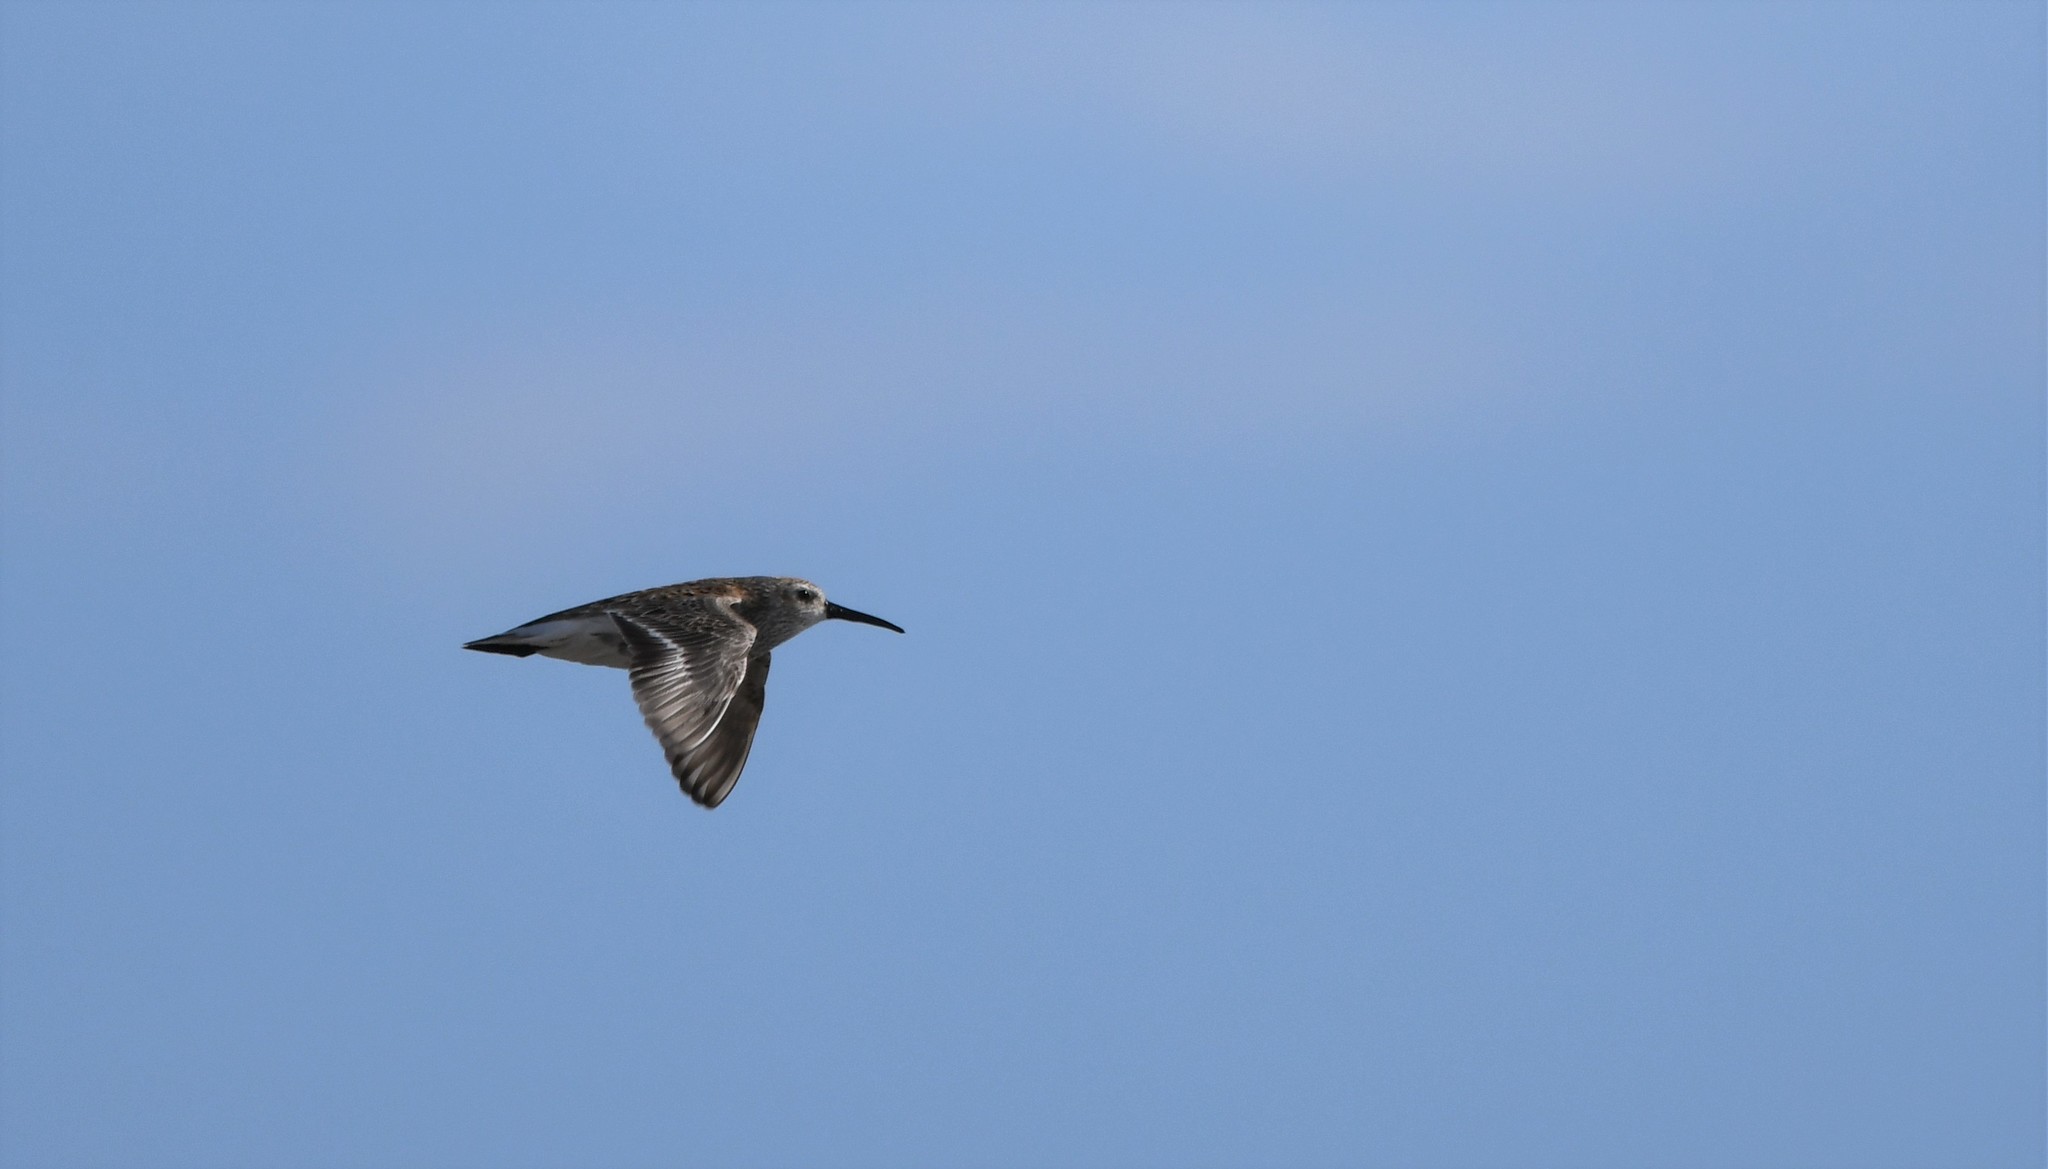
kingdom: Animalia
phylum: Chordata
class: Aves
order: Charadriiformes
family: Scolopacidae
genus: Calidris
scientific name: Calidris alpina
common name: Dunlin
